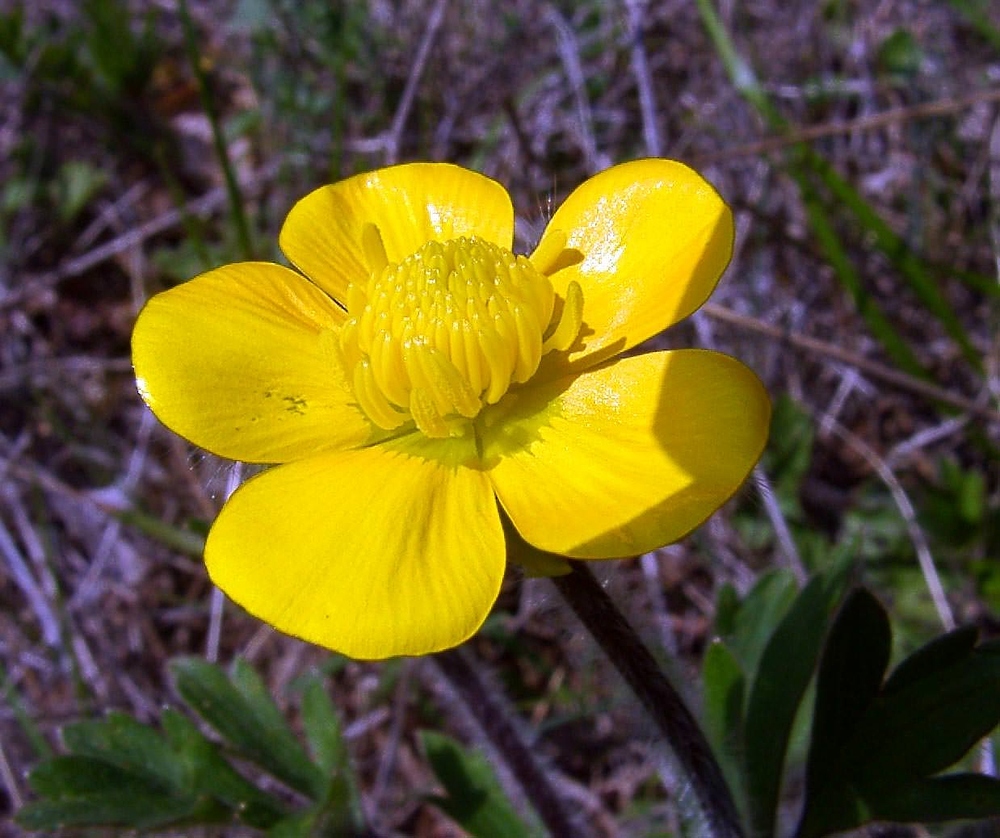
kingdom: Plantae
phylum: Tracheophyta
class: Magnoliopsida
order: Ranunculales
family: Ranunculaceae
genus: Ranunculus
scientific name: Ranunculus bulbosus
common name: Bulbous buttercup
